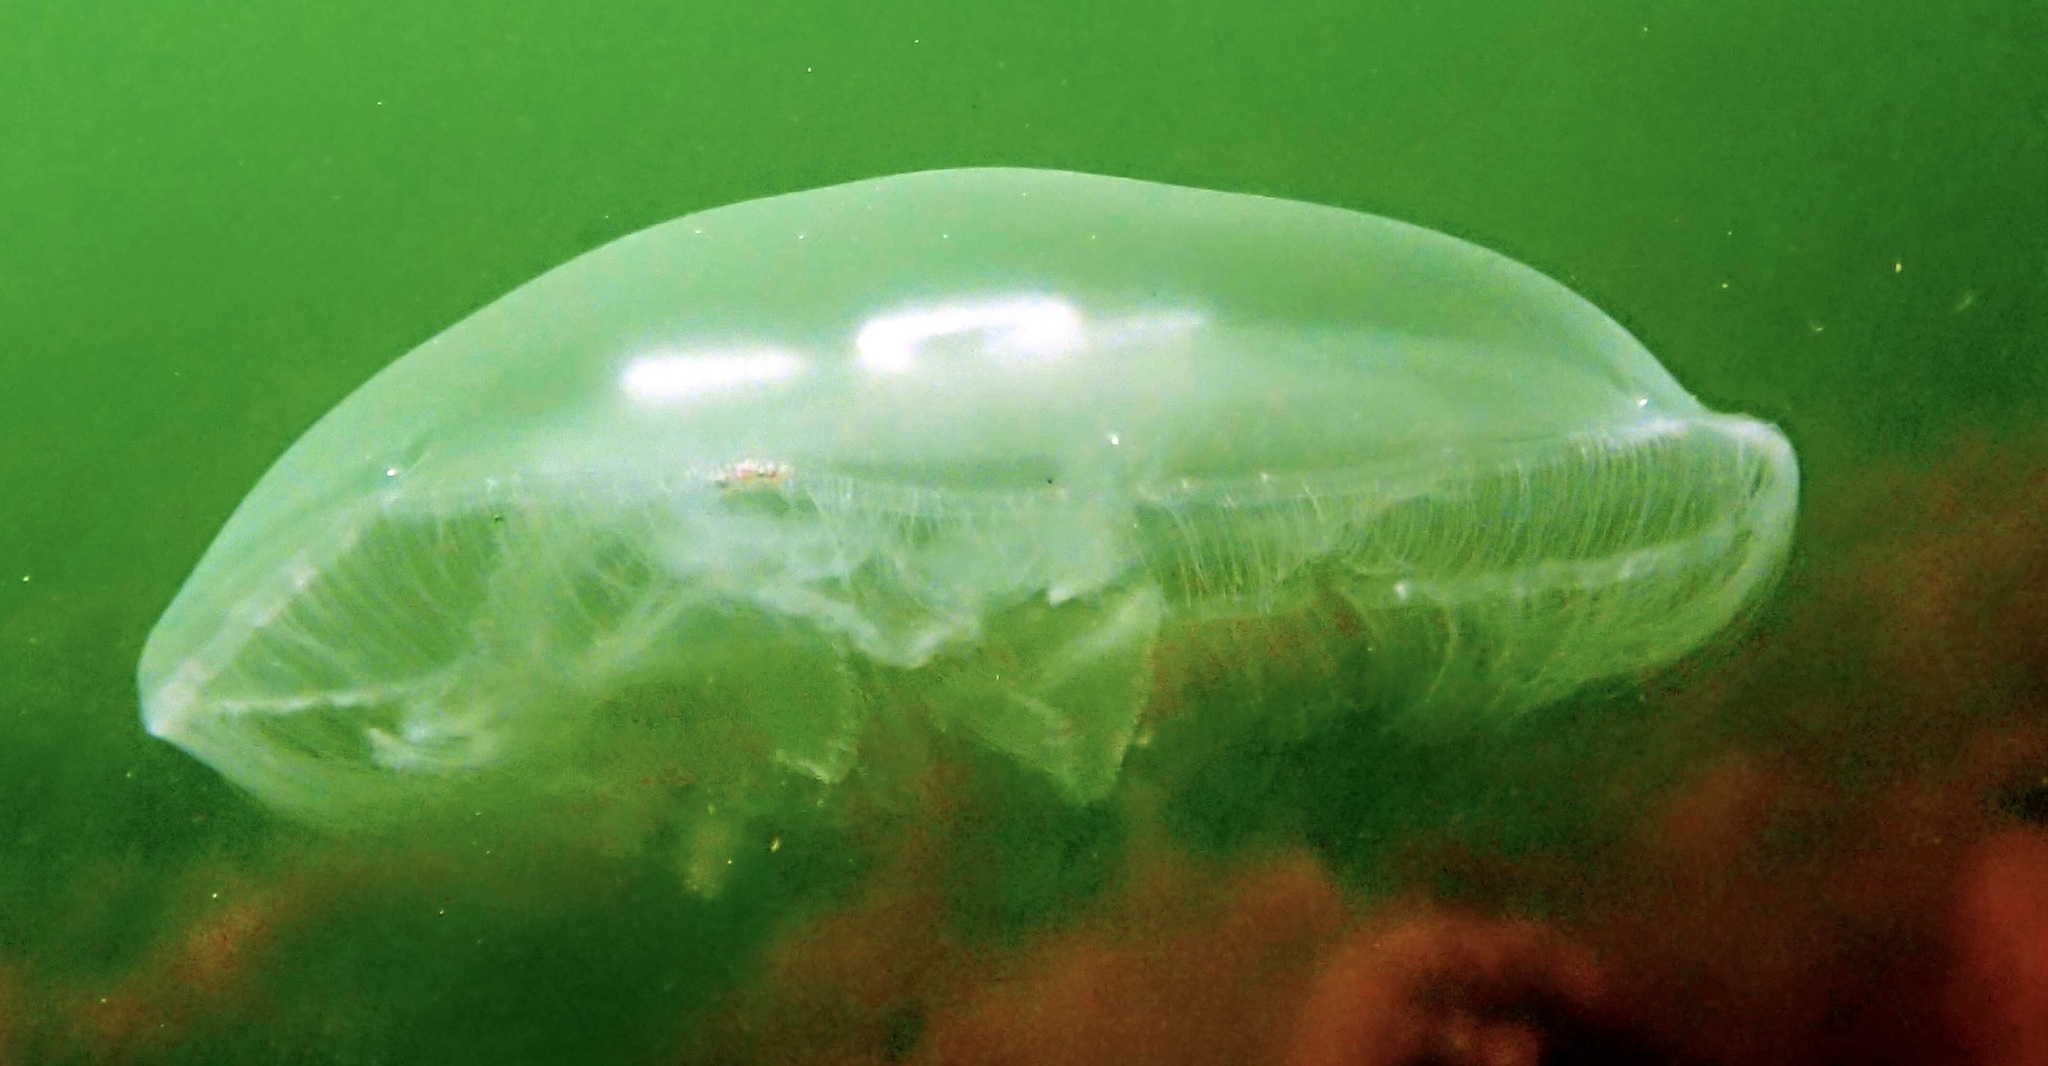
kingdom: Animalia
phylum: Cnidaria
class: Scyphozoa
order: Semaeostomeae
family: Ulmaridae
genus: Aurelia
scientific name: Aurelia aurita
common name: Moon jellyfish
